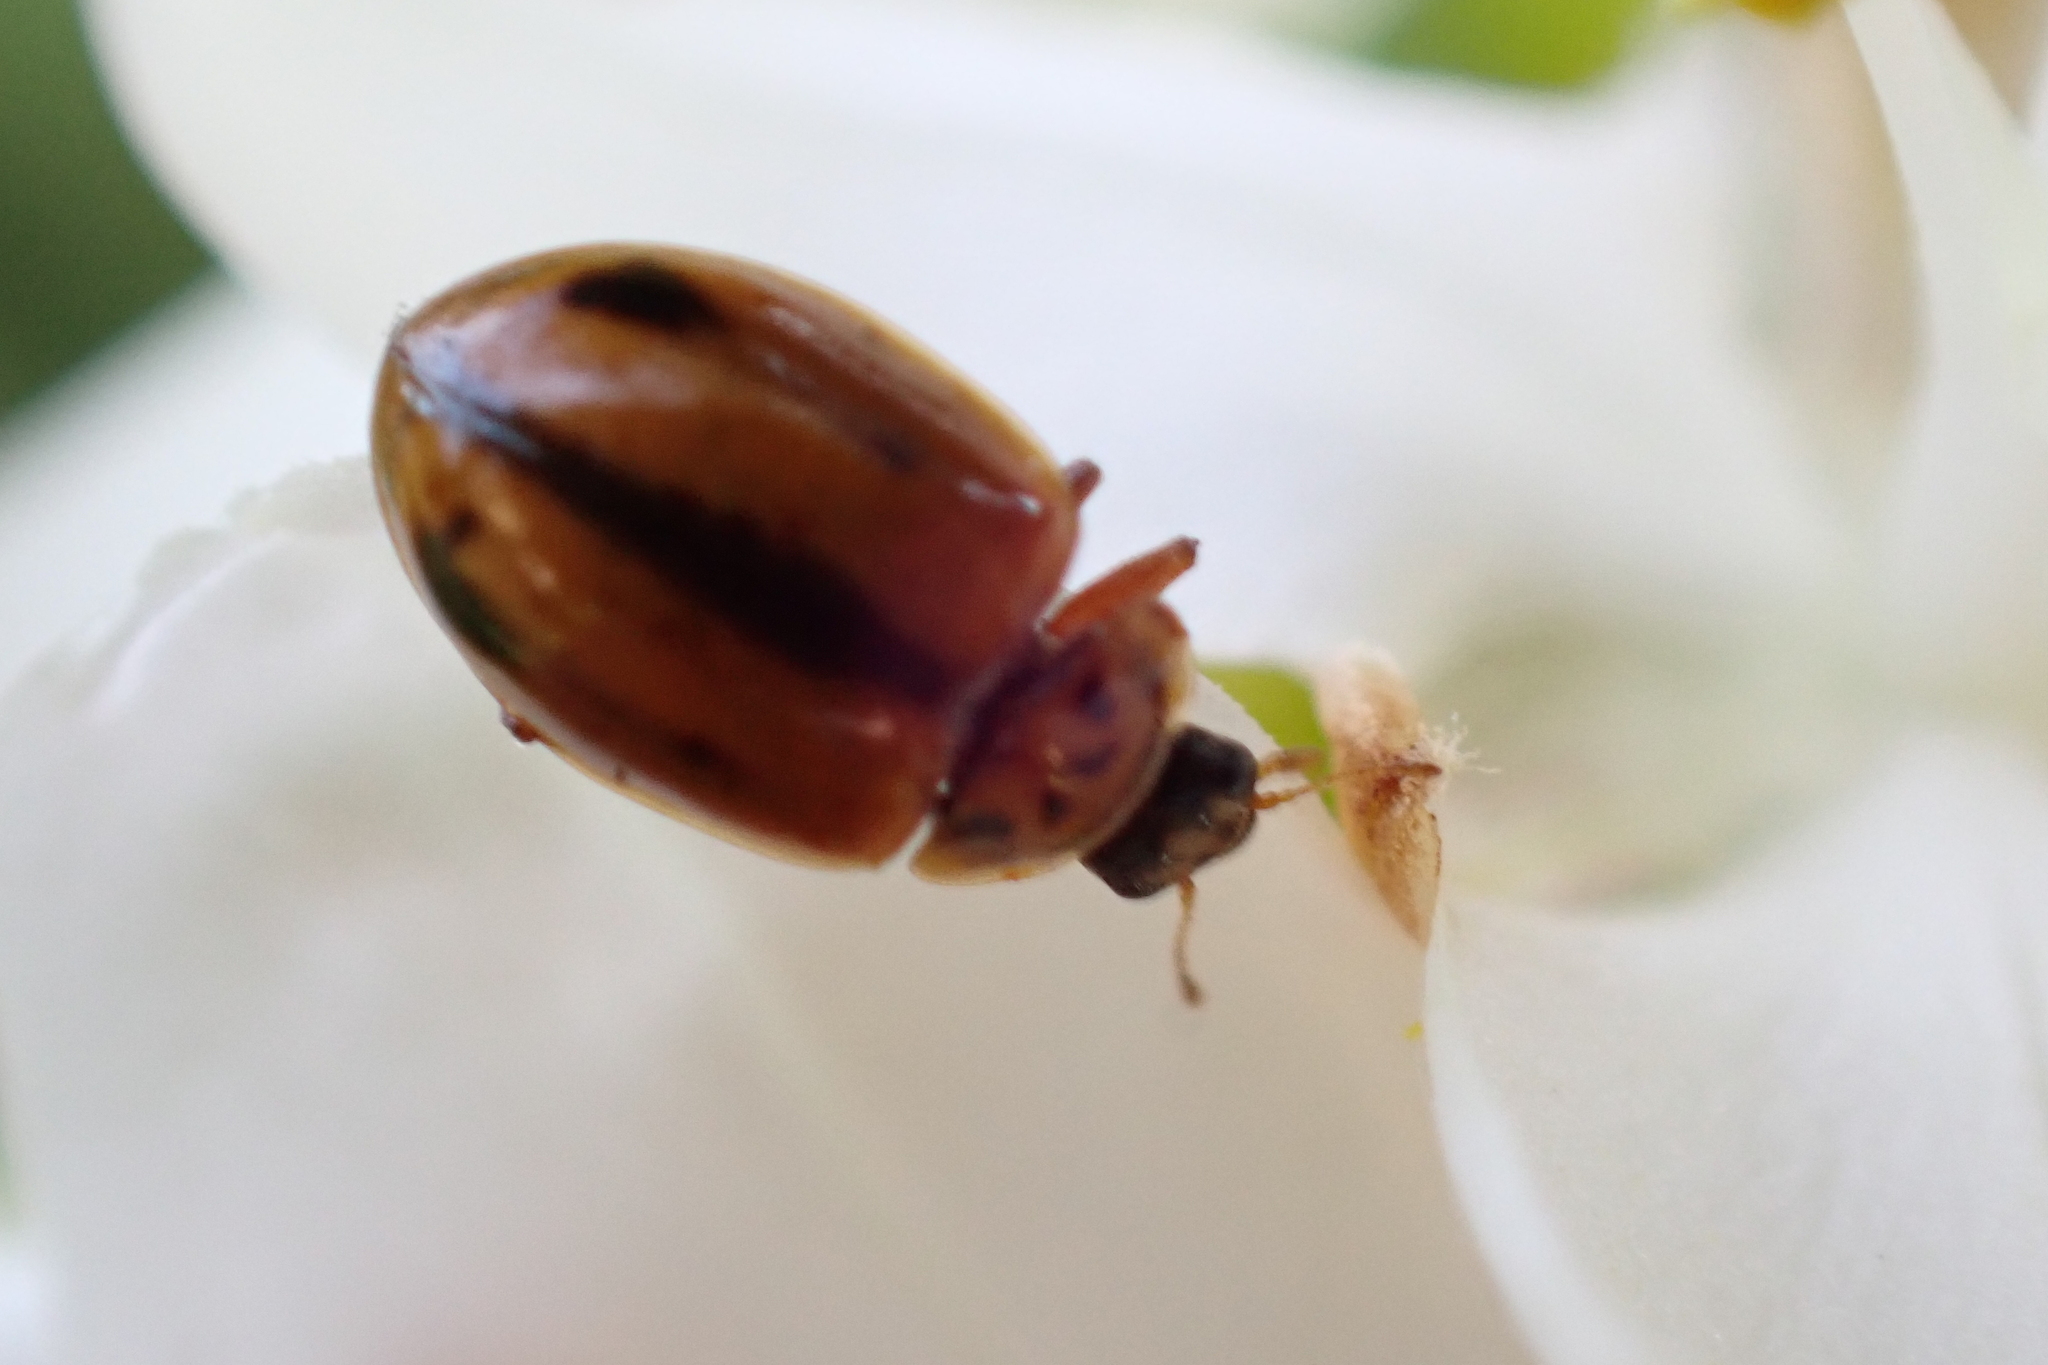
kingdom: Animalia
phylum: Arthropoda
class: Insecta
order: Coleoptera
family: Coccinellidae
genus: Aphidecta
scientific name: Aphidecta obliterata
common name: Larch ladybird
